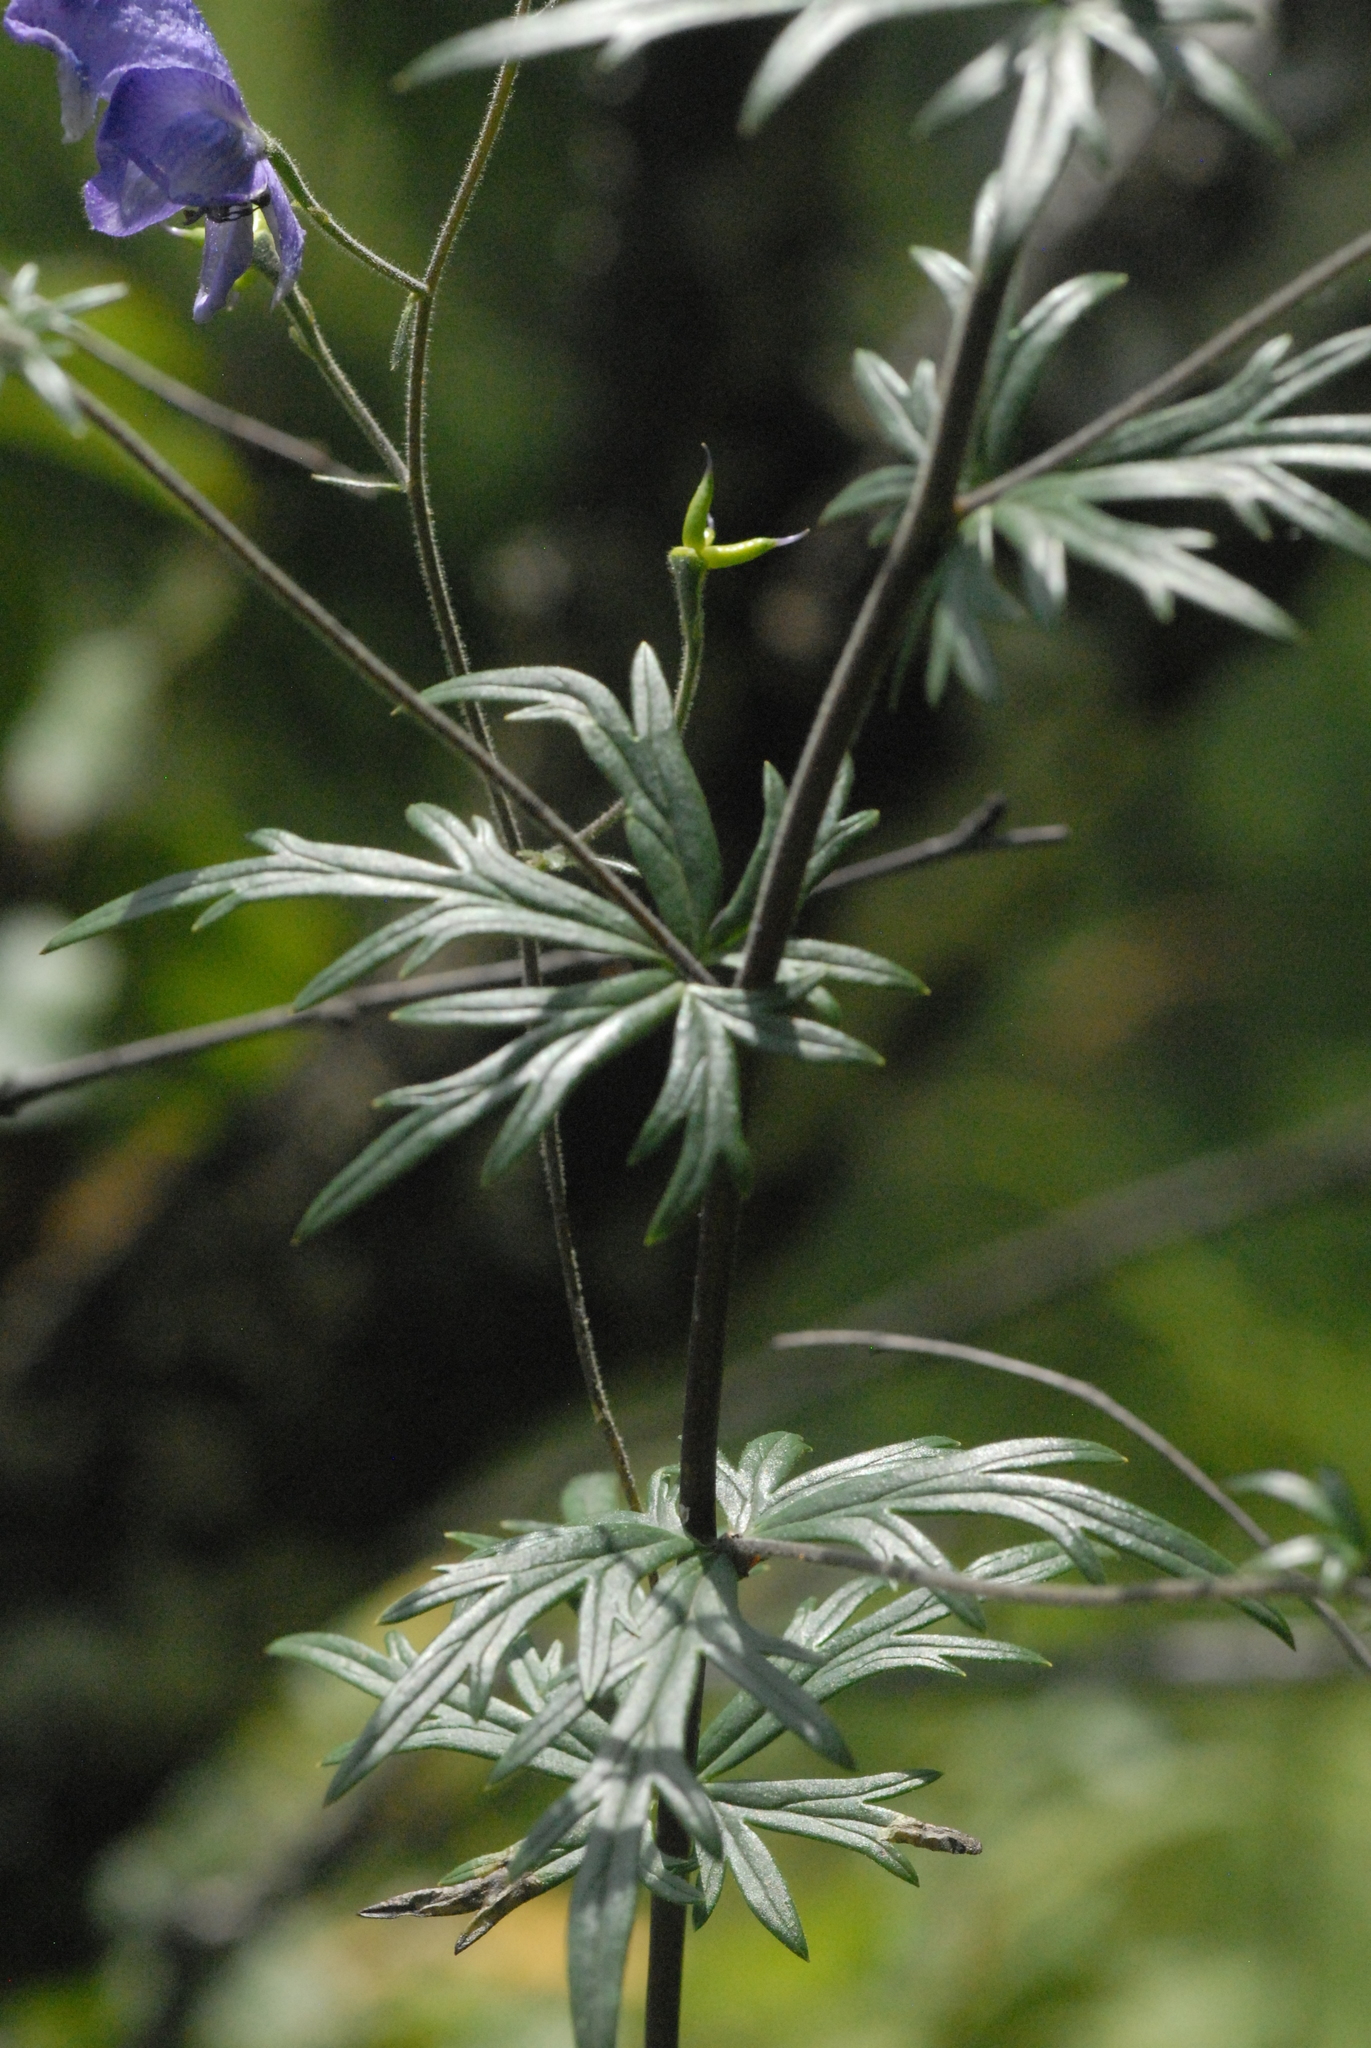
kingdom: Plantae
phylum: Tracheophyta
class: Magnoliopsida
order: Ranunculales
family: Ranunculaceae
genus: Aconitum
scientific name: Aconitum volubile
